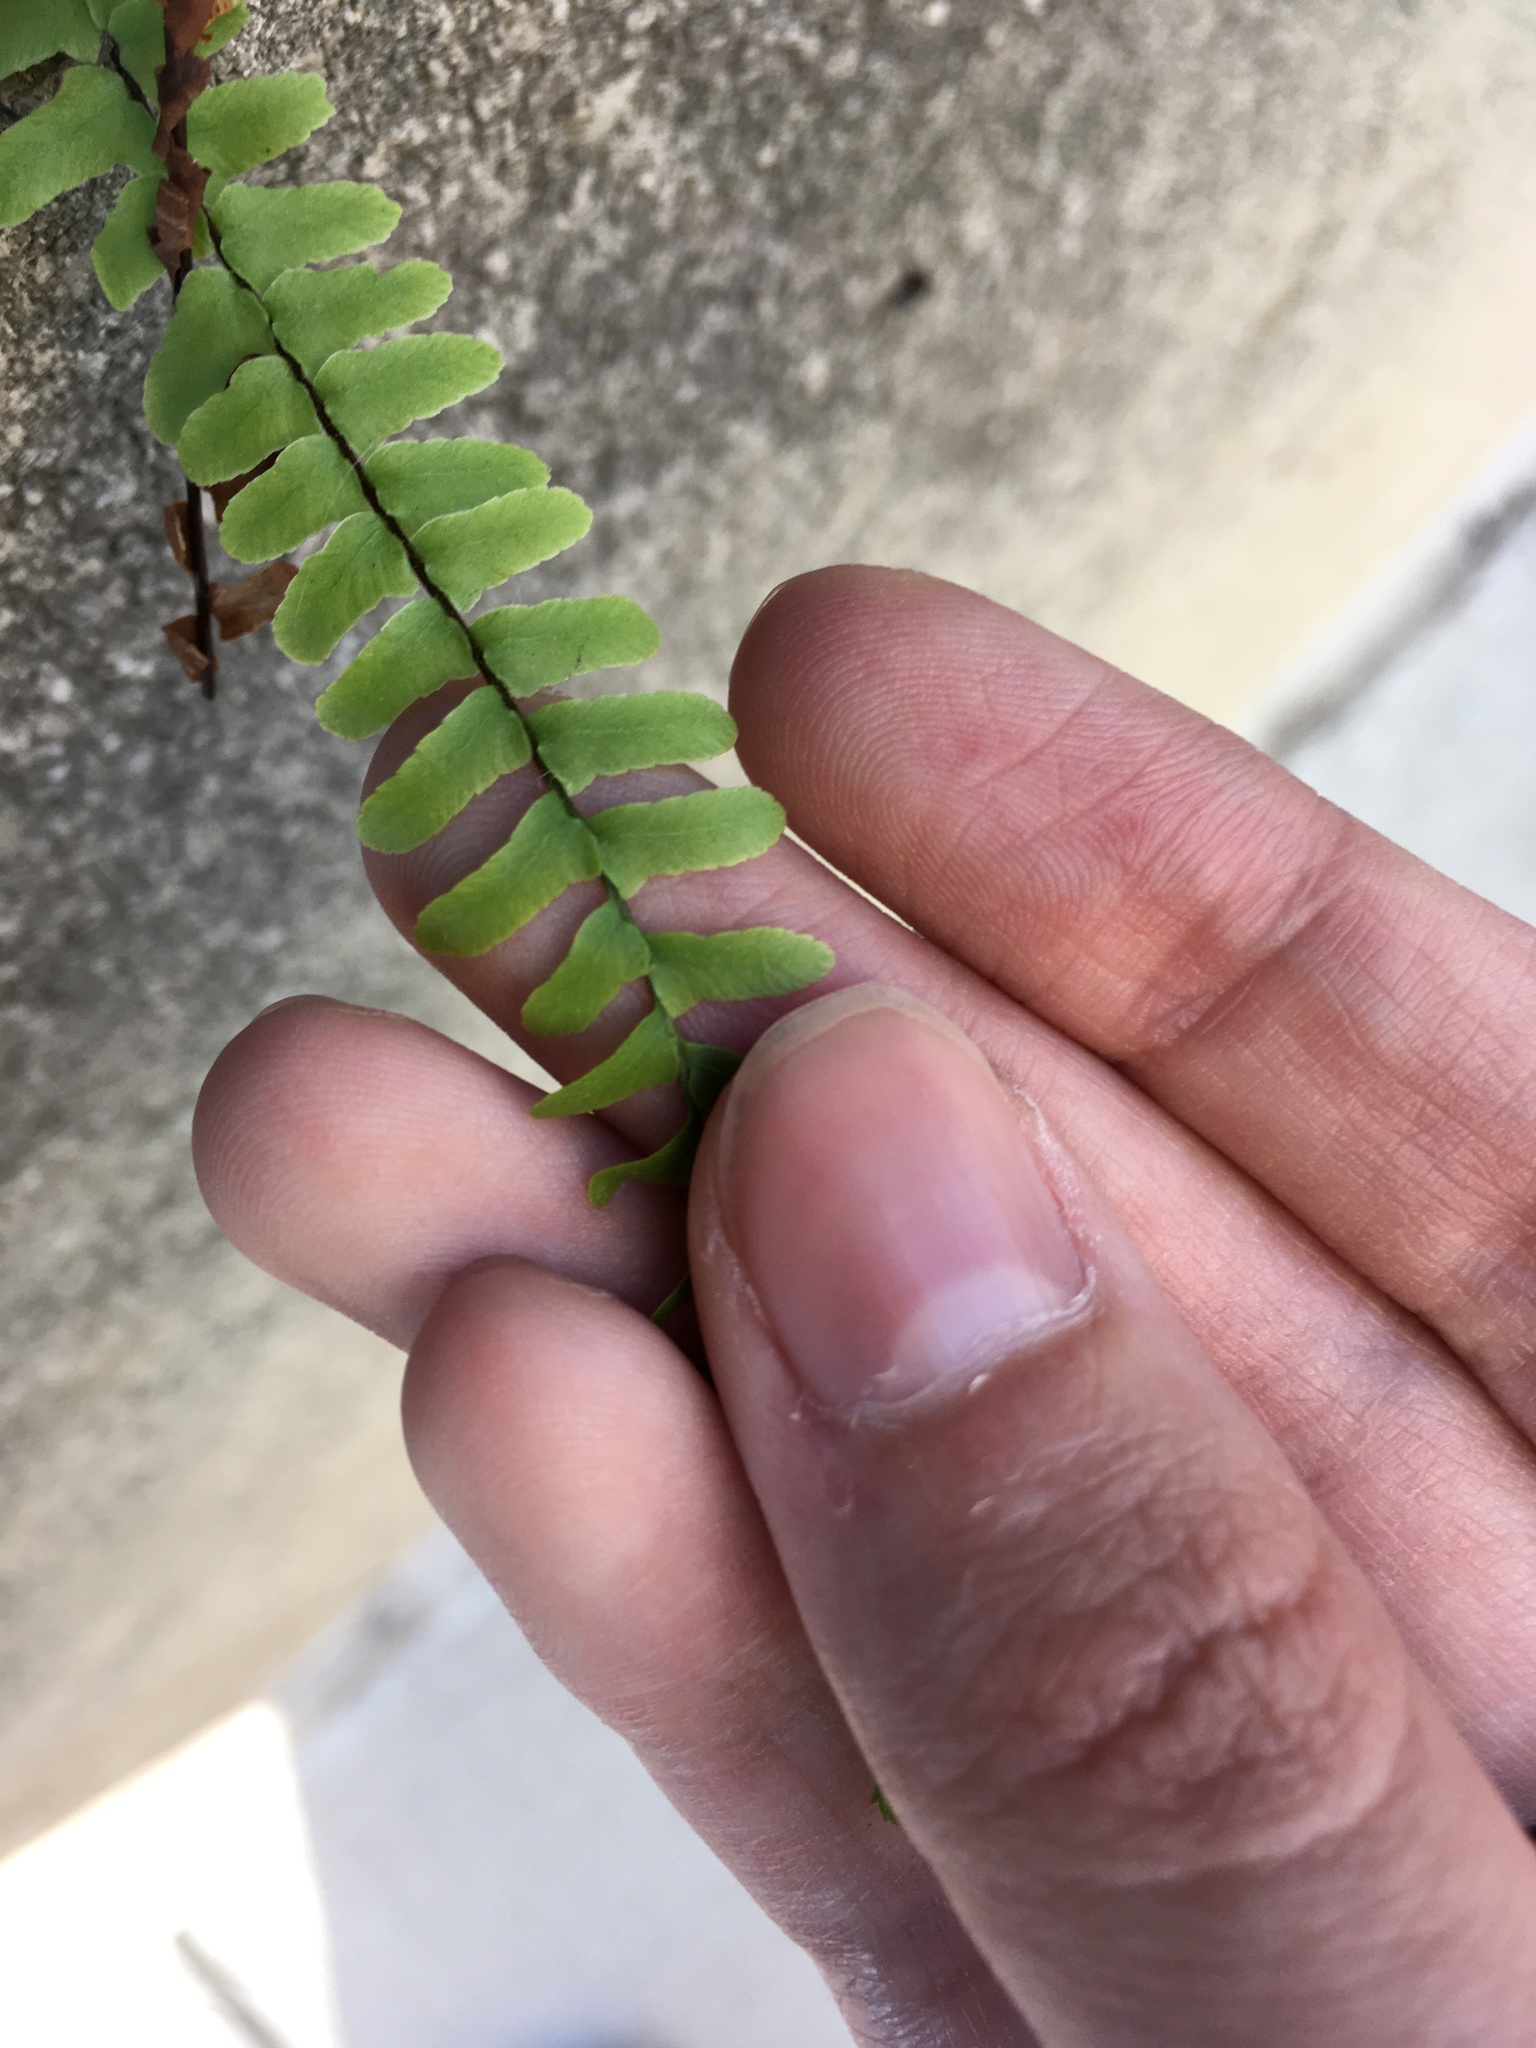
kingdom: Plantae
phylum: Tracheophyta
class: Polypodiopsida
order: Polypodiales
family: Aspleniaceae
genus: Asplenium
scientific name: Asplenium platyneuron
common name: Ebony spleenwort
